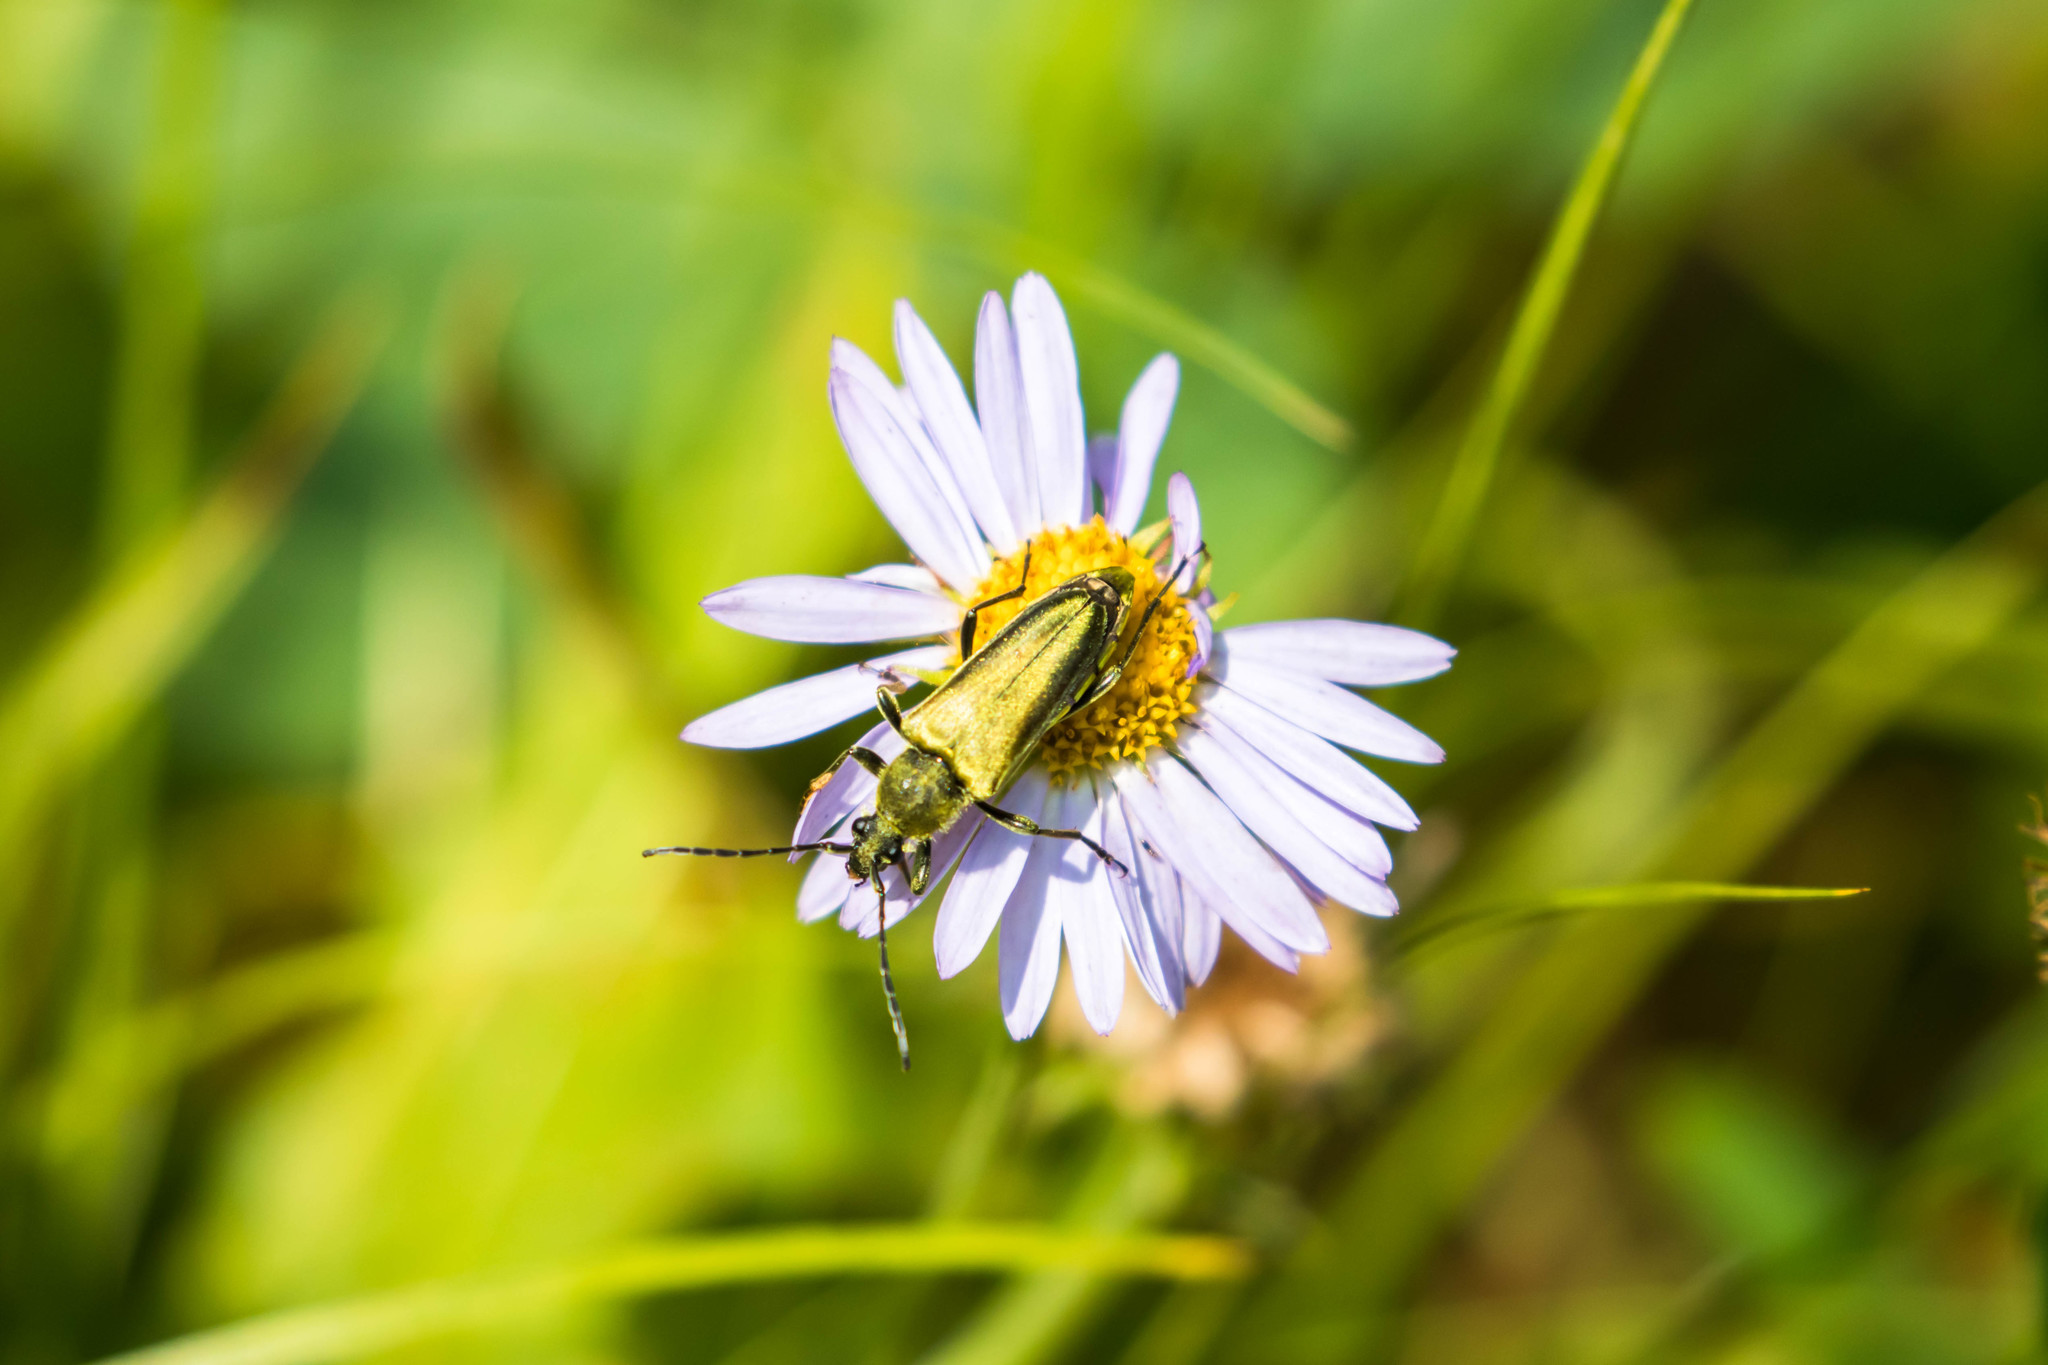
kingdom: Animalia
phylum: Arthropoda
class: Insecta
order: Coleoptera
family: Cerambycidae
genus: Cosmosalia
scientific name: Cosmosalia chrysocoma
